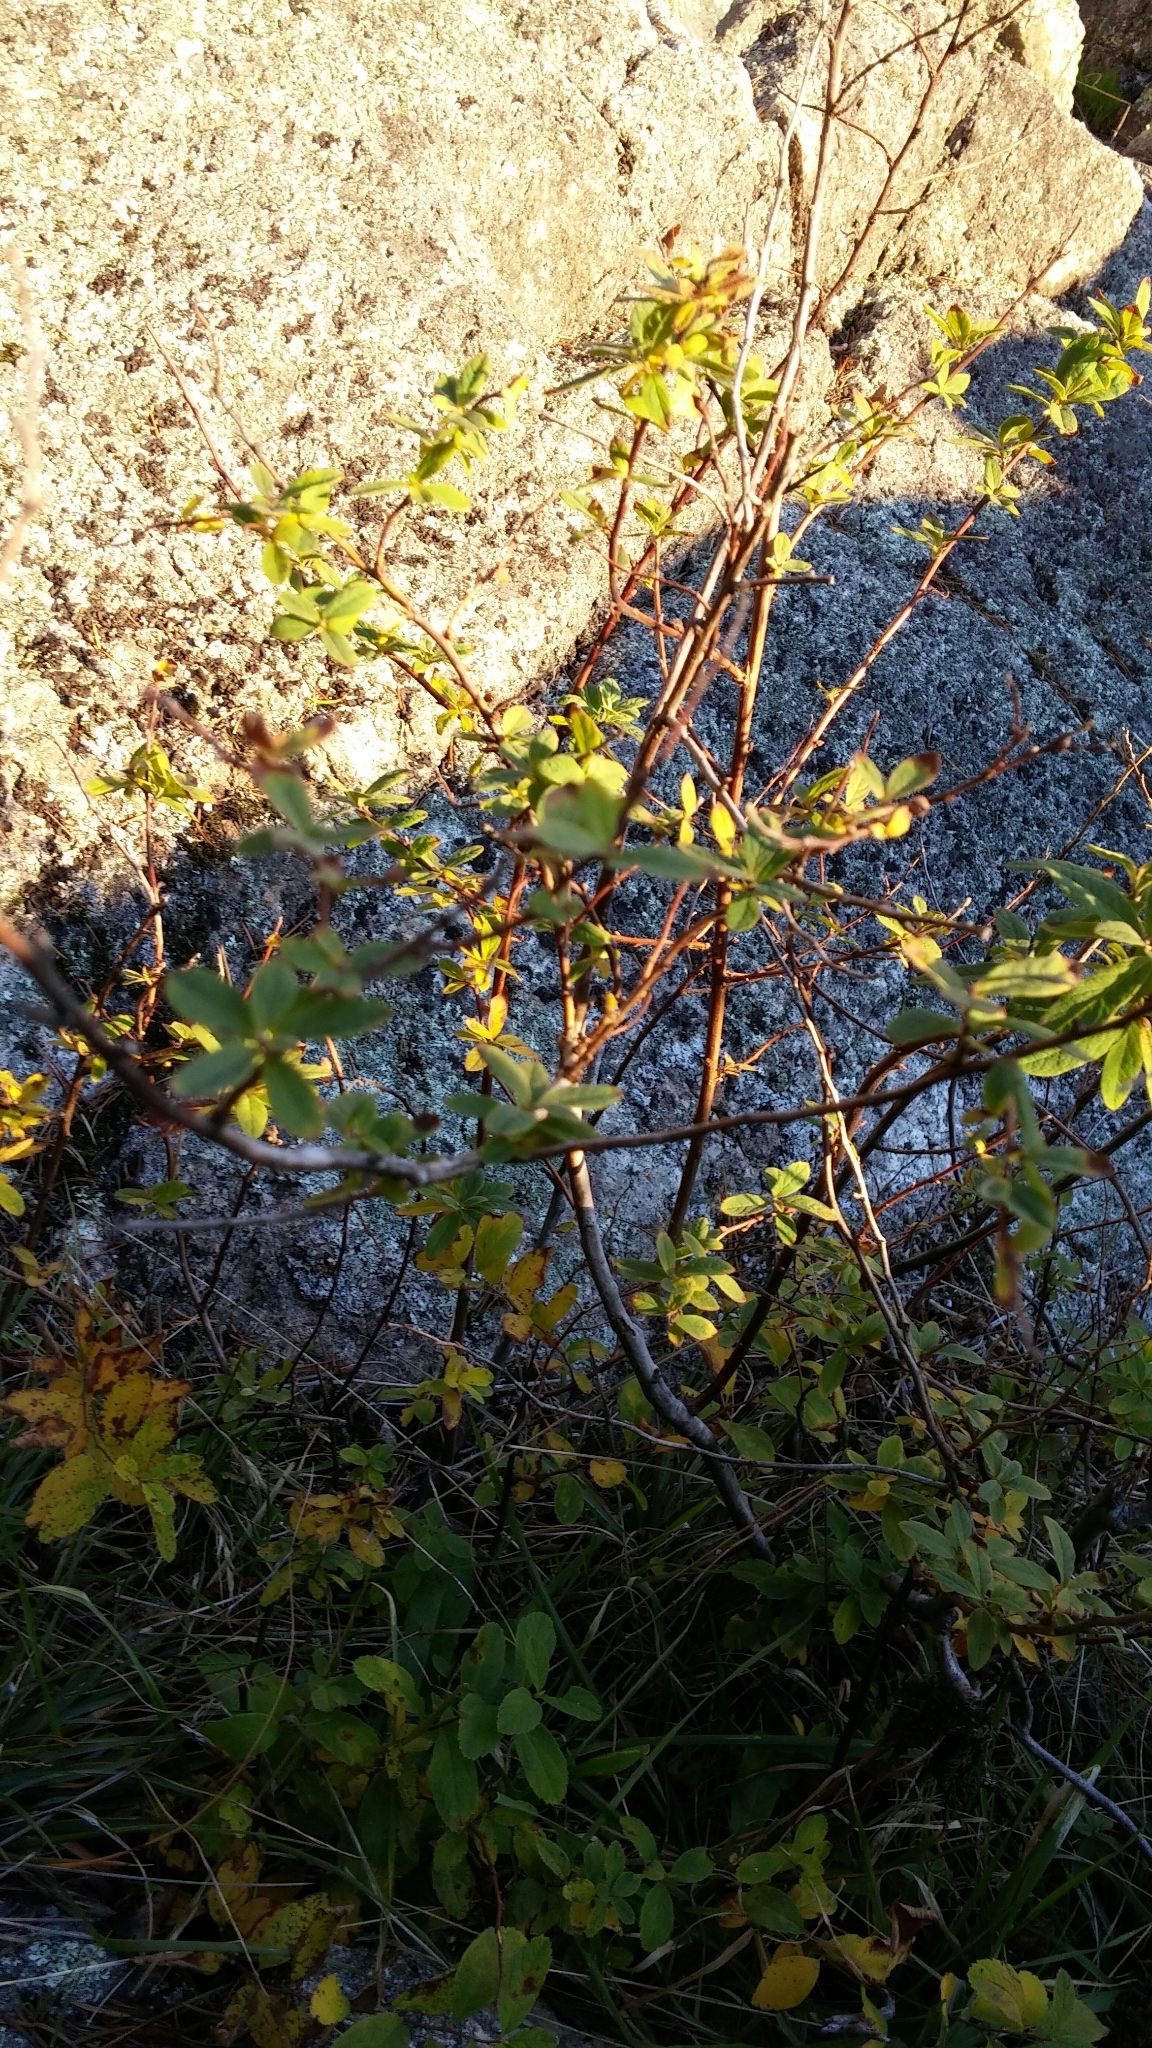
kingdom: Plantae
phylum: Tracheophyta
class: Magnoliopsida
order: Rosales
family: Rosaceae
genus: Spiraea
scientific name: Spiraea douglasii
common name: Steeplebush
